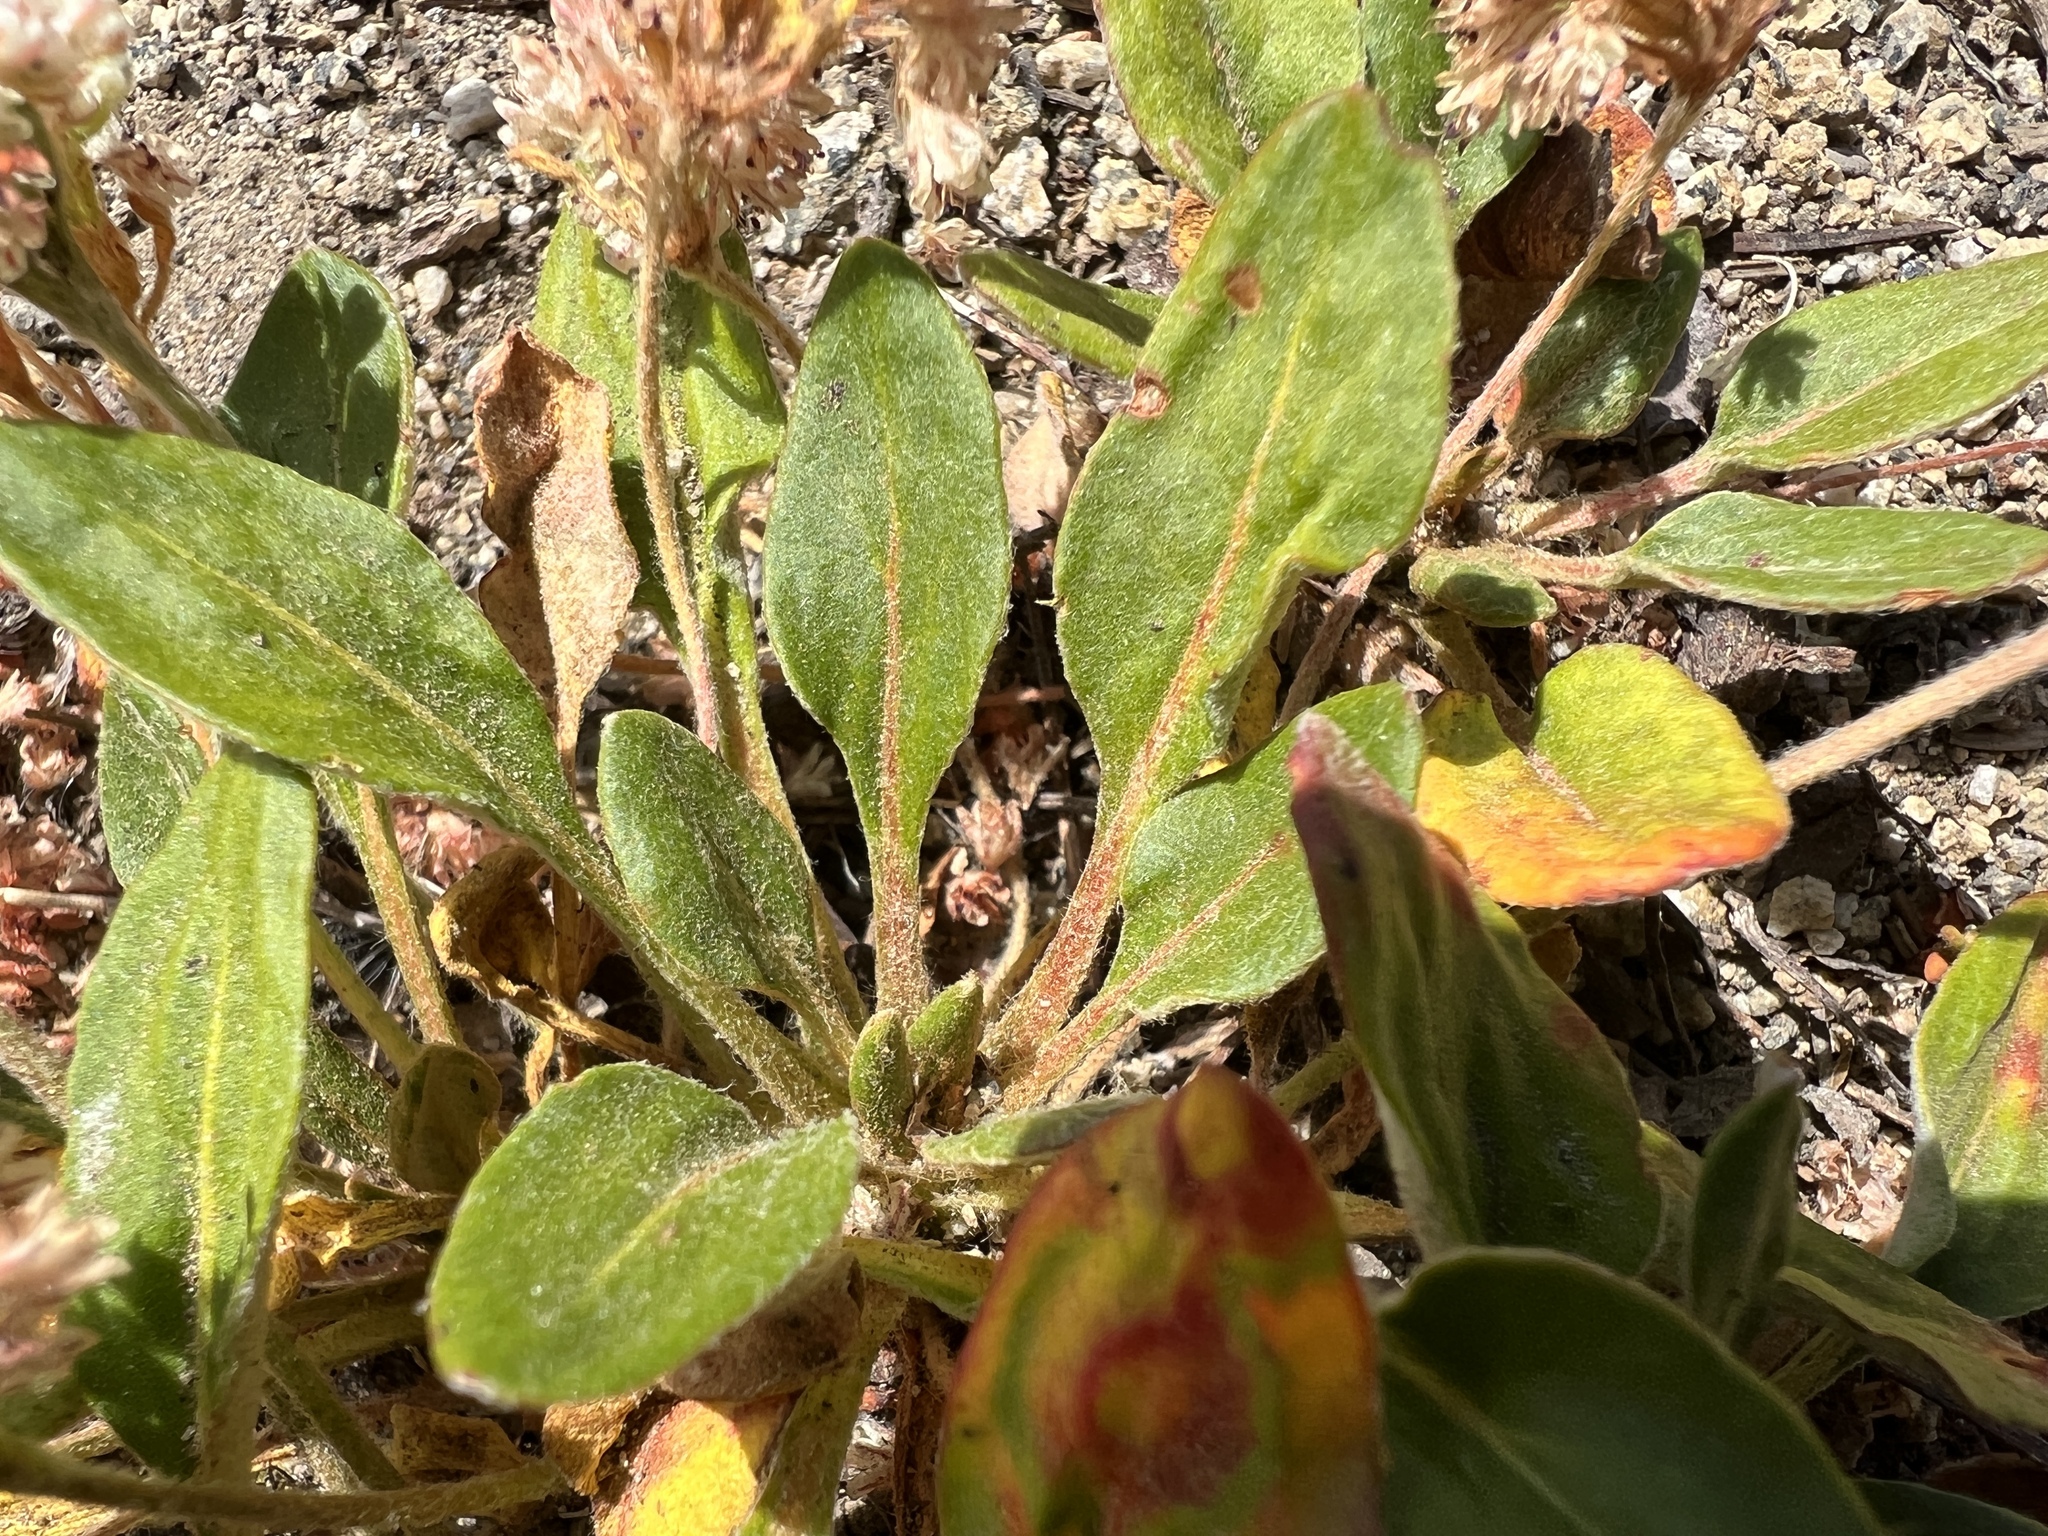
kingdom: Plantae
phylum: Tracheophyta
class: Magnoliopsida
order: Caryophyllales
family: Polygonaceae
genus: Eriogonum
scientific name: Eriogonum pyrolifolium
